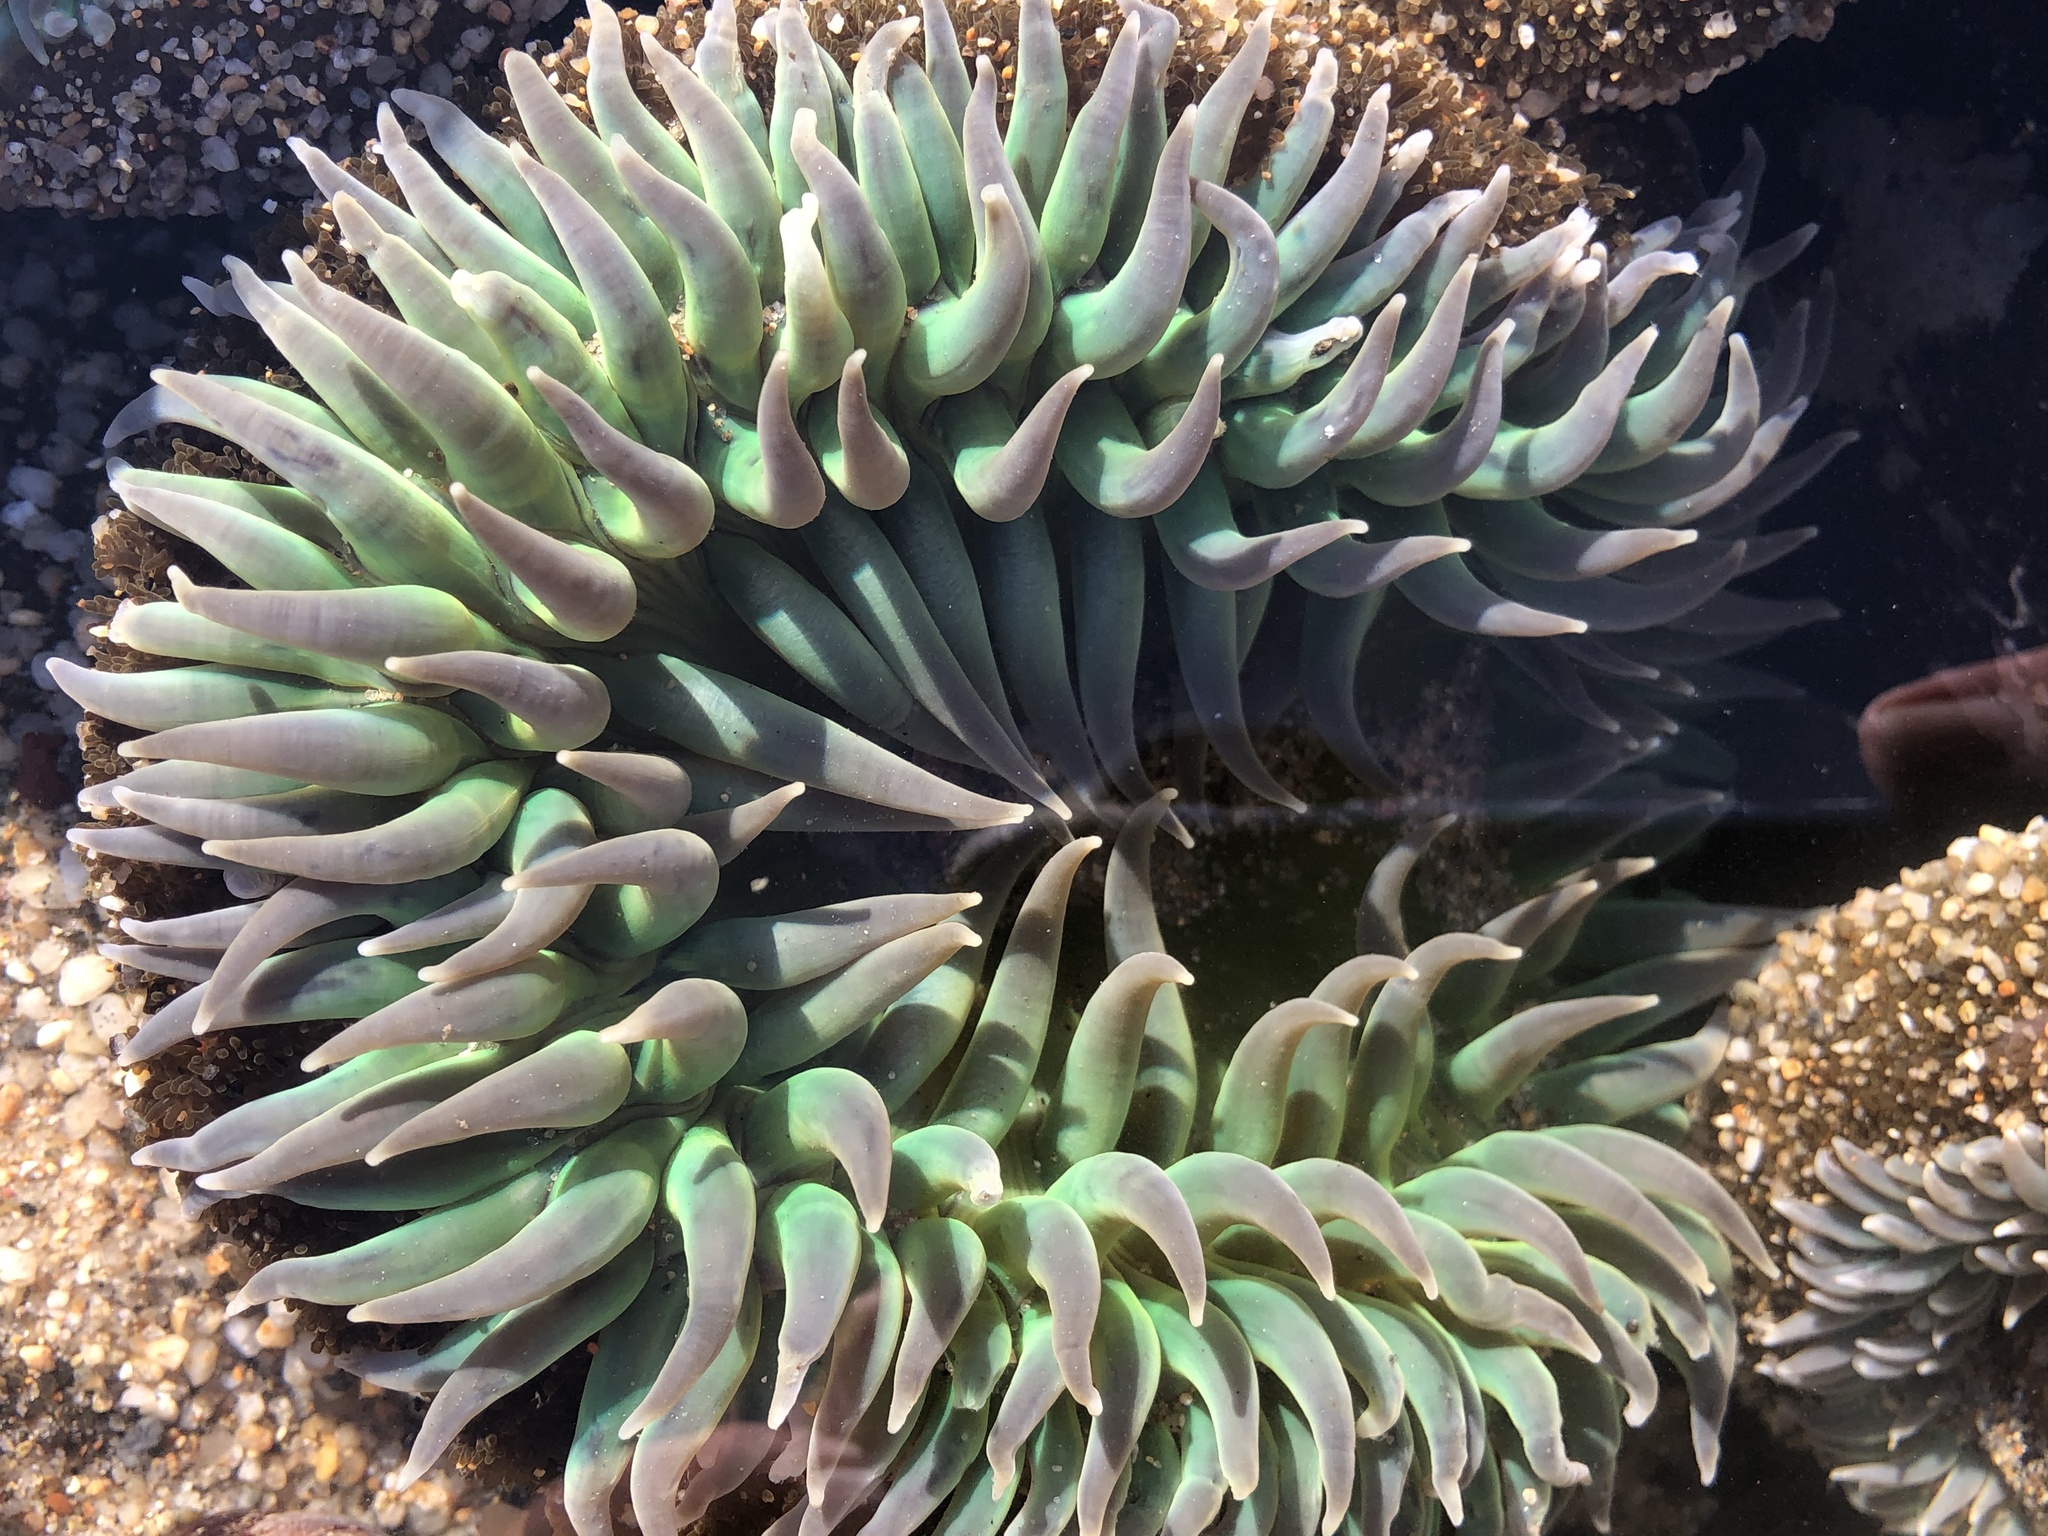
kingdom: Animalia
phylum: Cnidaria
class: Anthozoa
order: Actiniaria
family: Actiniidae
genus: Anthopleura
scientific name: Anthopleura xanthogrammica
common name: Giant green anemone
